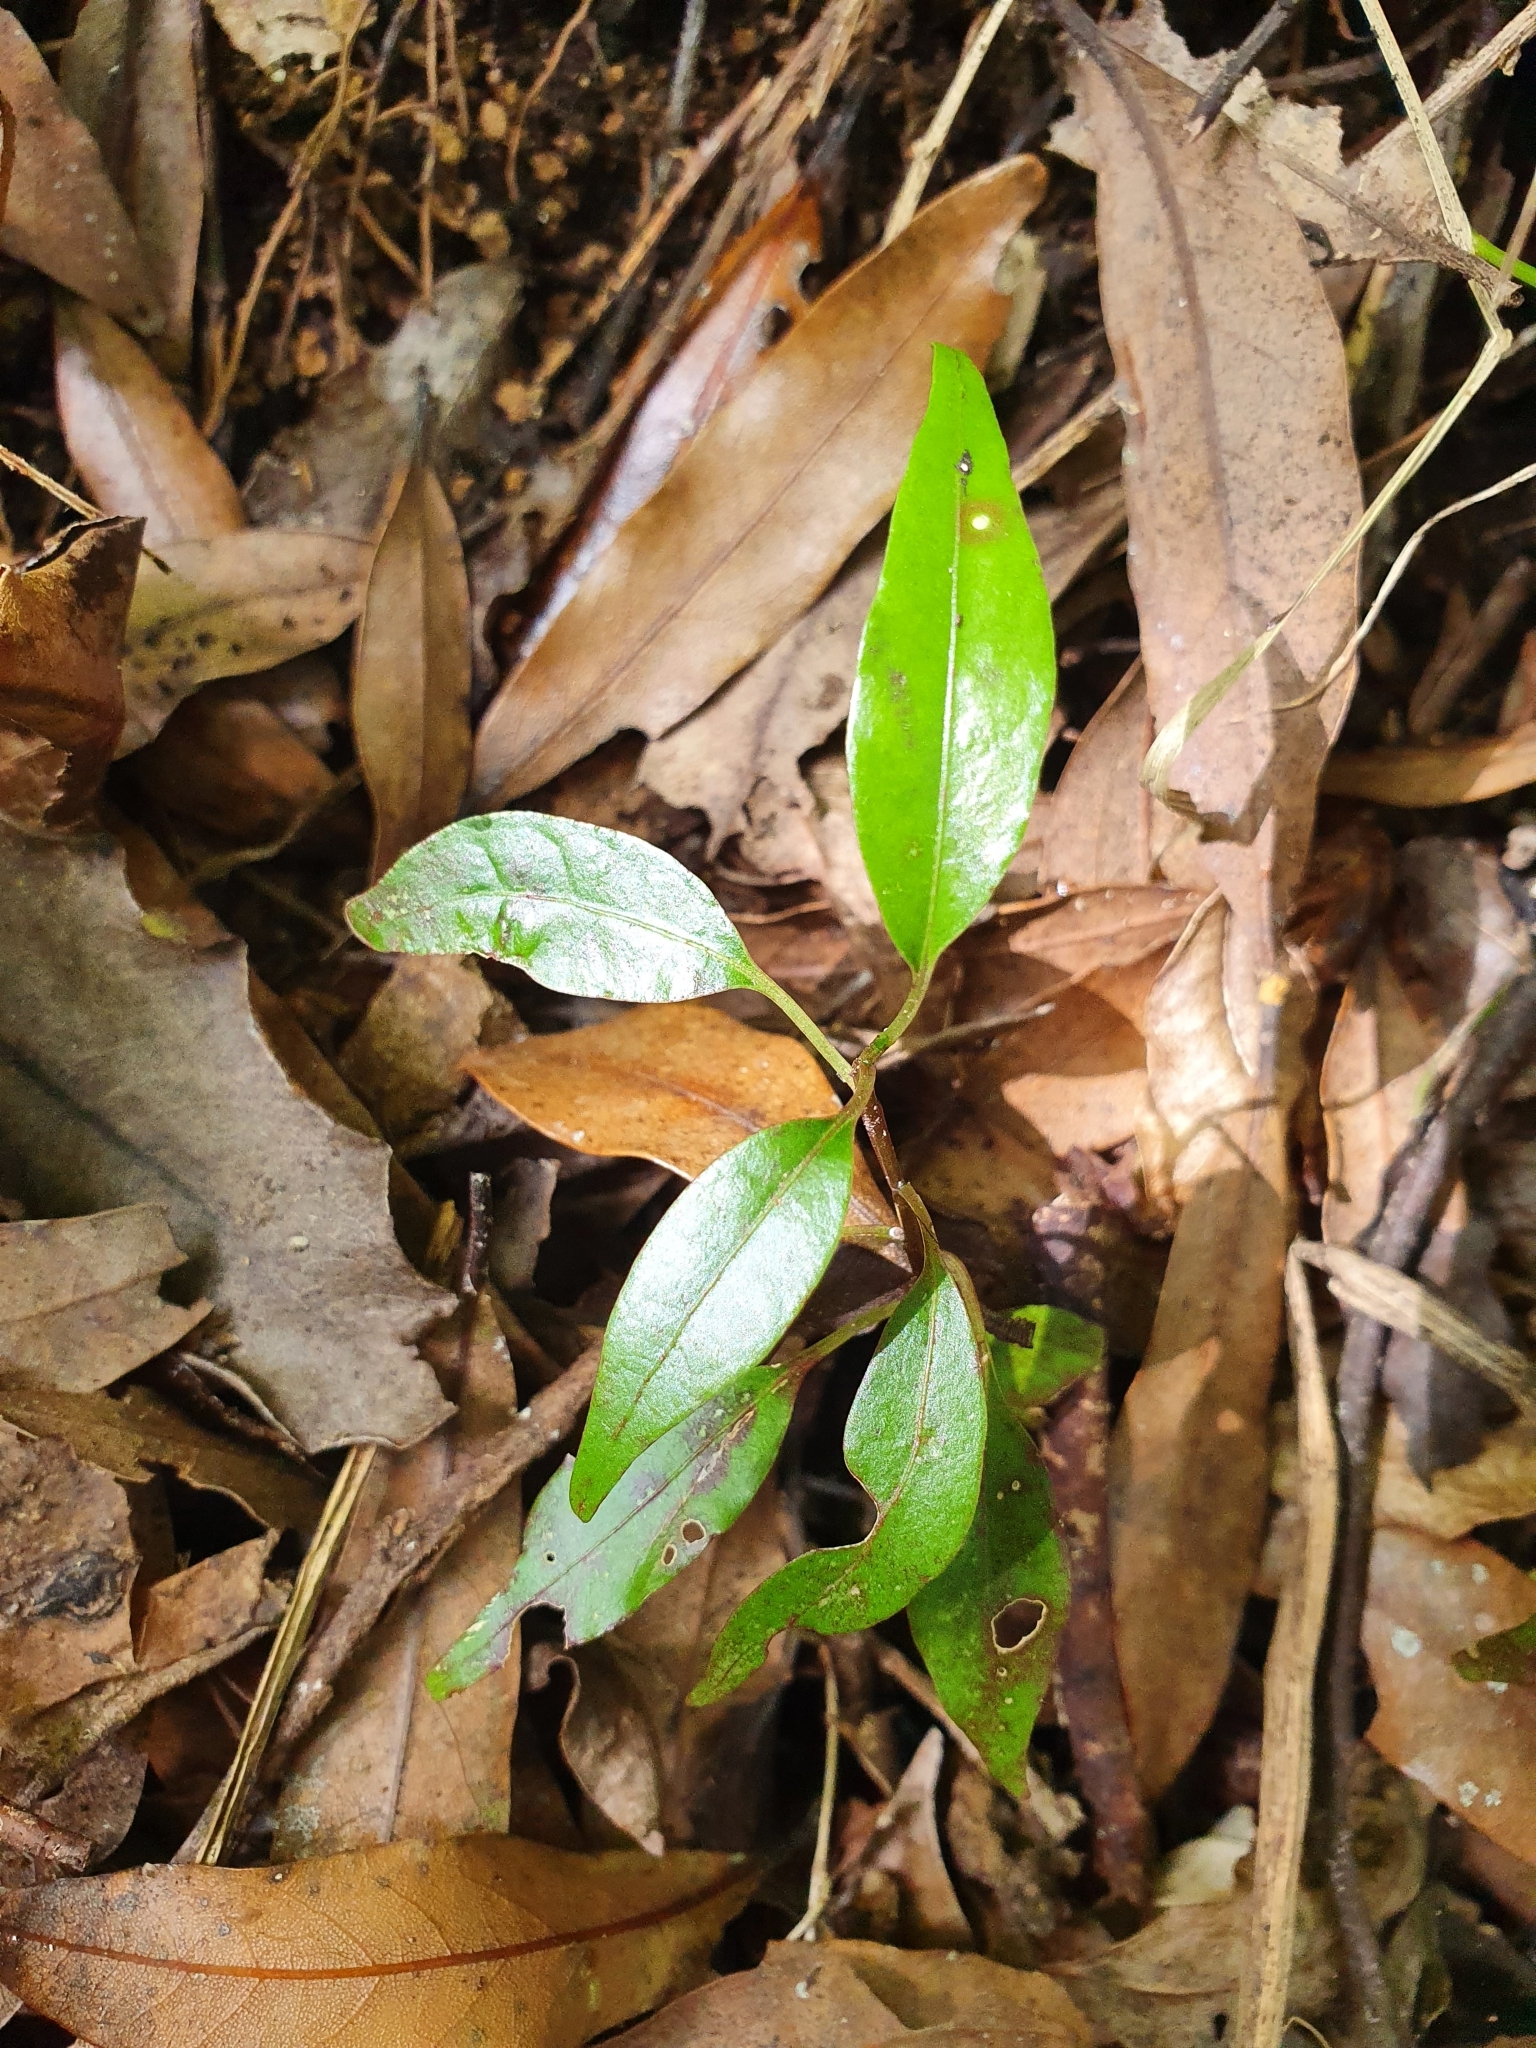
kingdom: Plantae
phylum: Tracheophyta
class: Magnoliopsida
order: Malpighiales
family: Passifloraceae
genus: Passiflora
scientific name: Passiflora tetrandra
